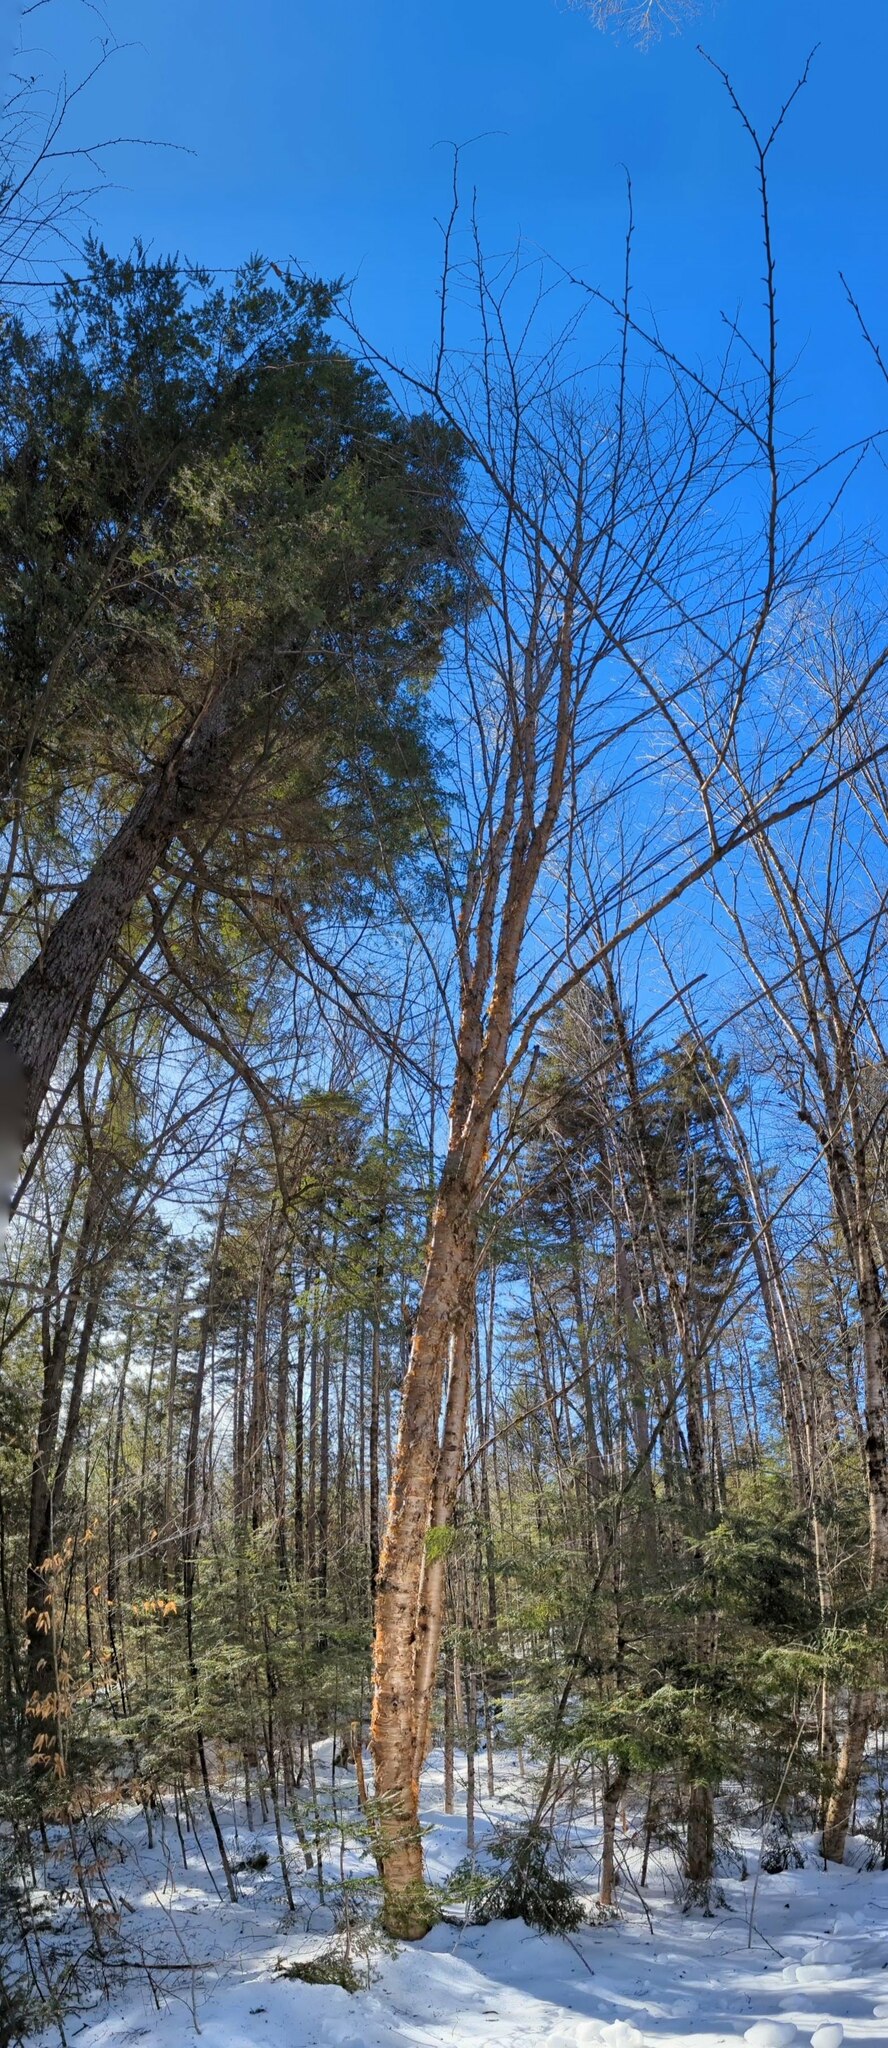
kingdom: Plantae
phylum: Tracheophyta
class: Magnoliopsida
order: Fagales
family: Betulaceae
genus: Betula
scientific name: Betula alleghaniensis
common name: Yellow birch
